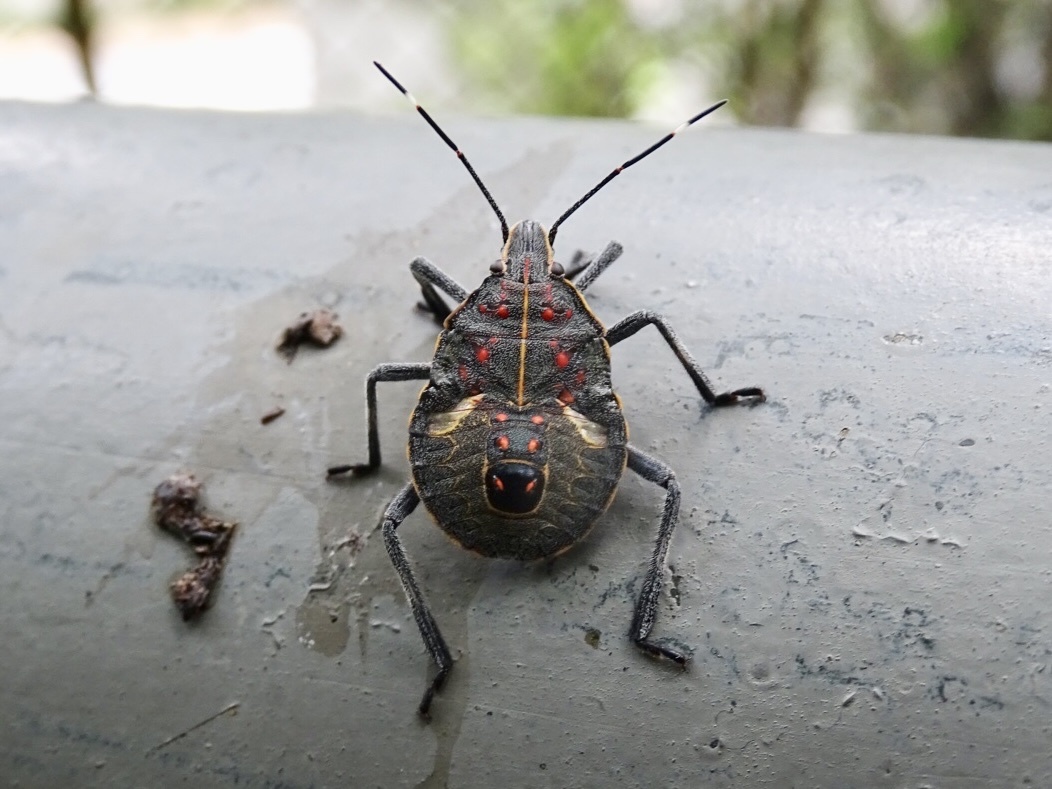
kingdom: Animalia
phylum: Arthropoda
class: Insecta
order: Hemiptera
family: Pentatomidae
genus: Erthesina
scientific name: Erthesina fullo
